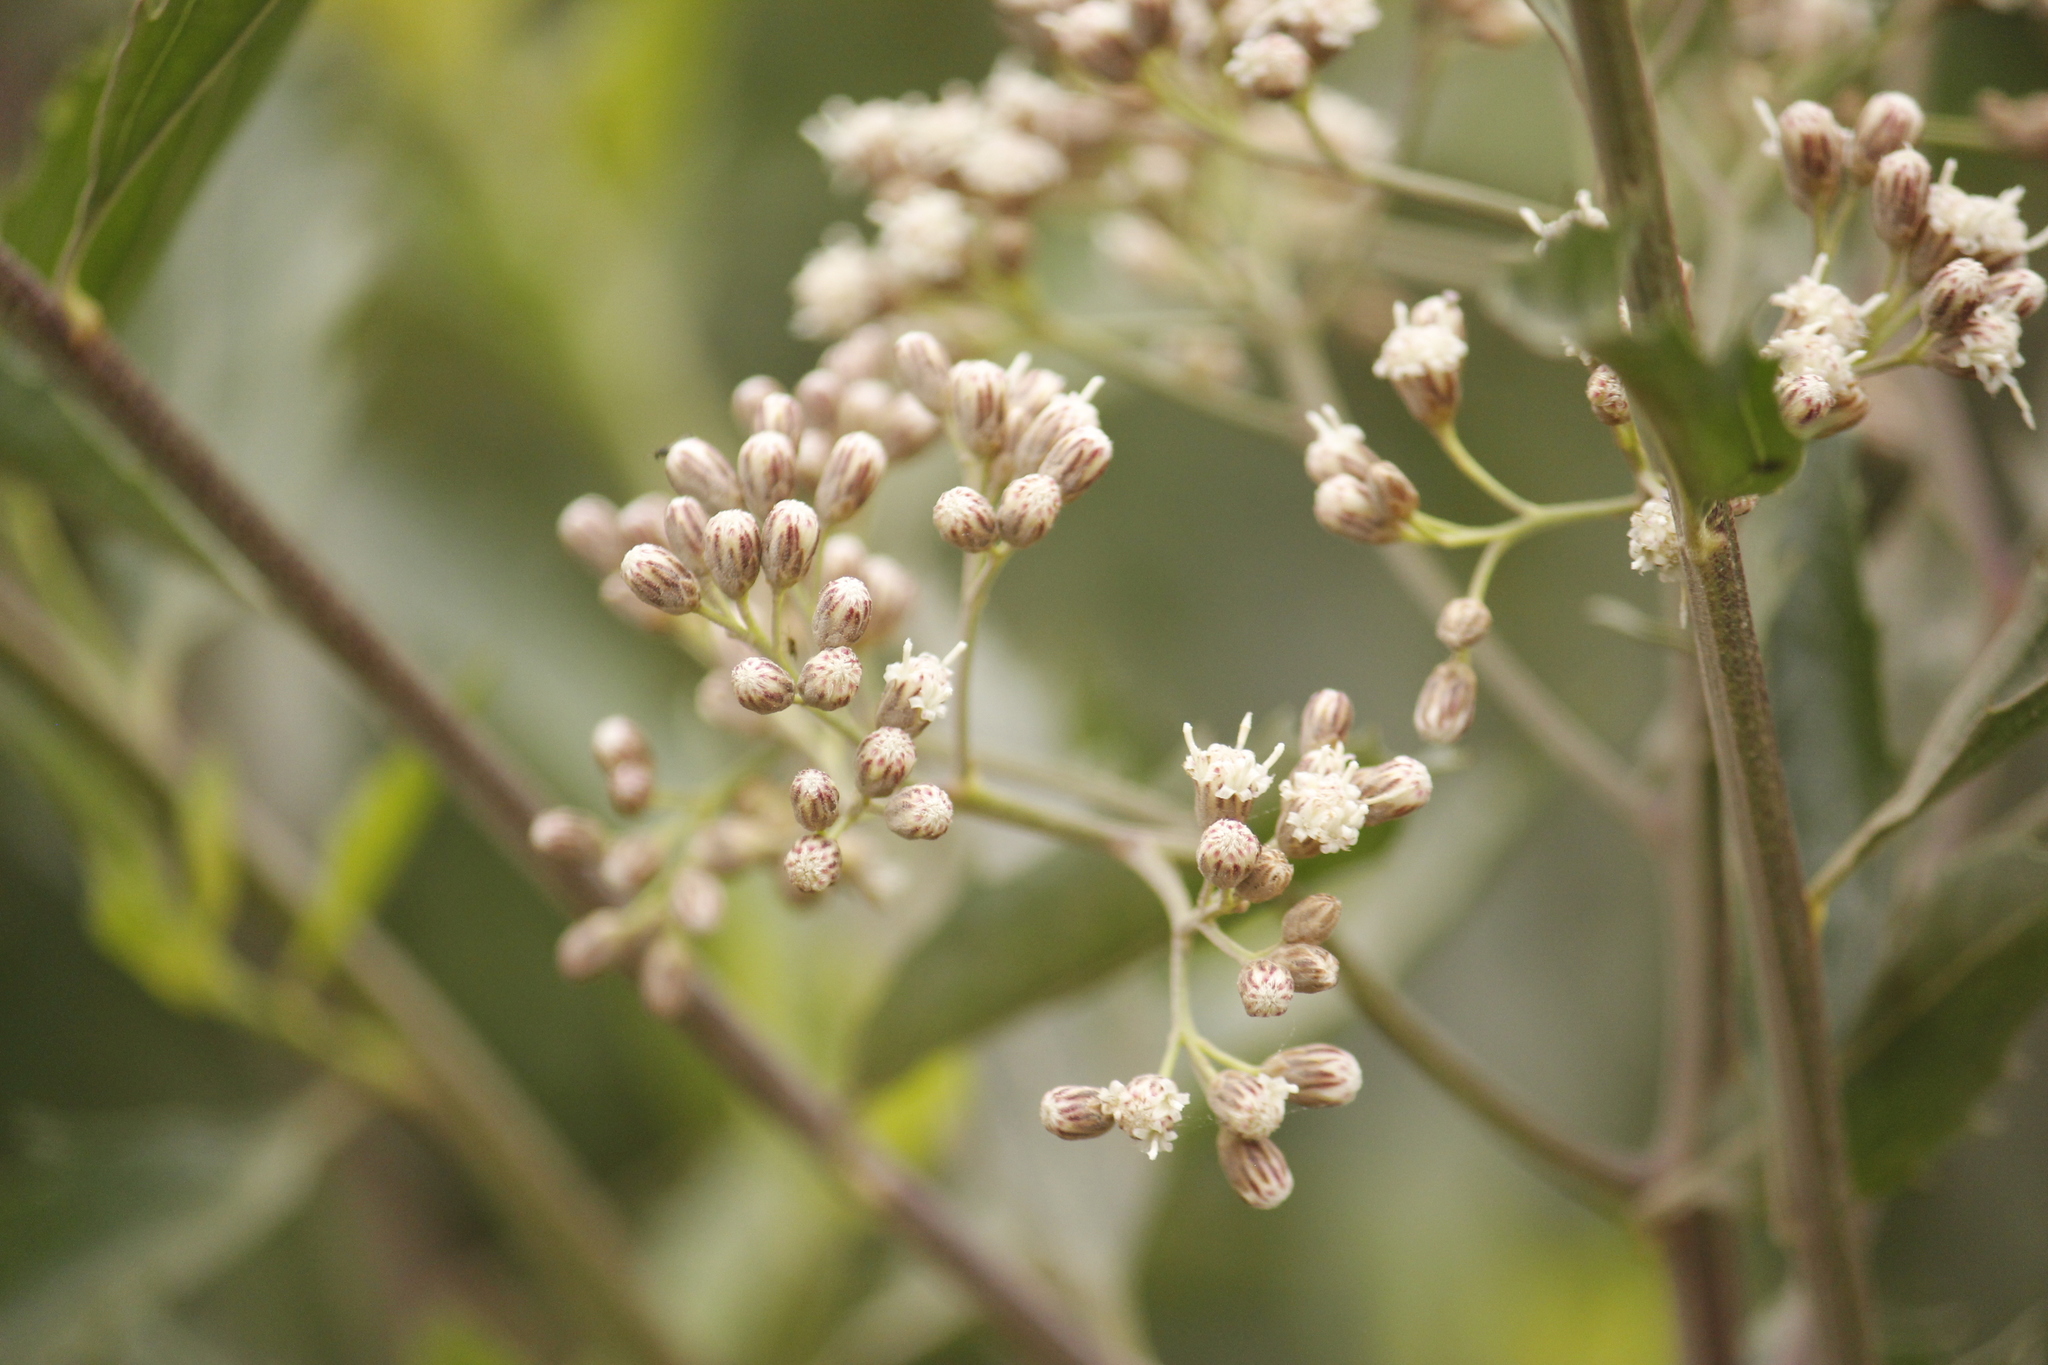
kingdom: Plantae
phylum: Tracheophyta
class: Magnoliopsida
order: Asterales
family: Asteraceae
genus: Baccharis
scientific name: Baccharis salicifolia
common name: Sticky baccharis
